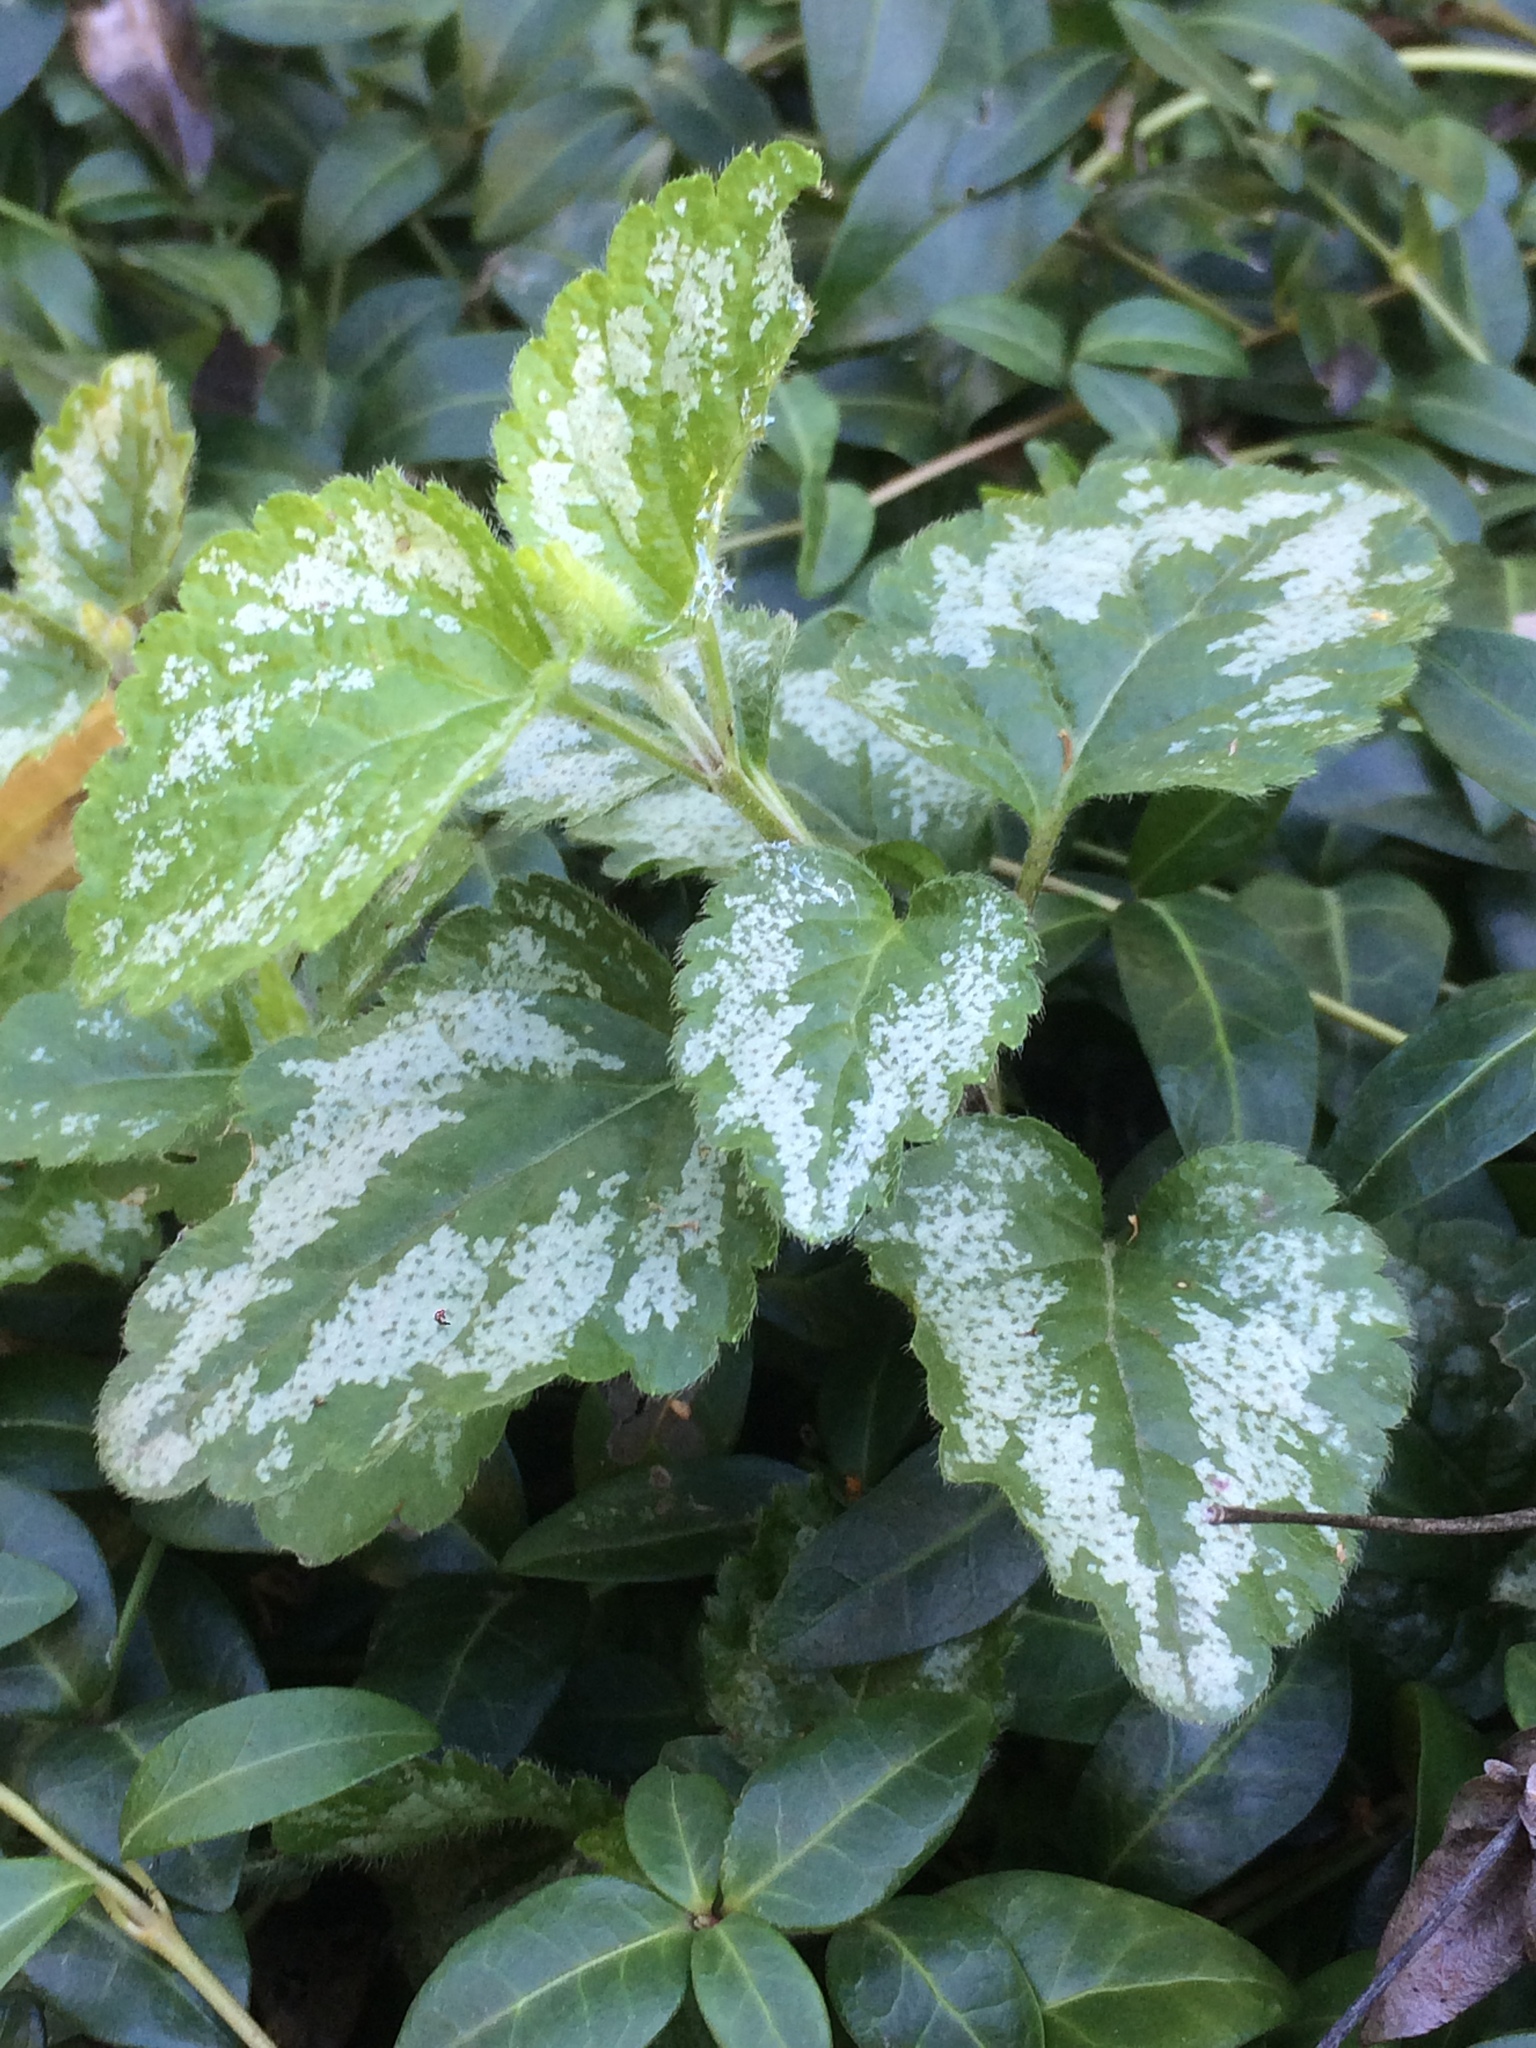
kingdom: Plantae
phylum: Tracheophyta
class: Magnoliopsida
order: Lamiales
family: Lamiaceae
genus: Lamium
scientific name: Lamium galeobdolon
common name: Yellow archangel
